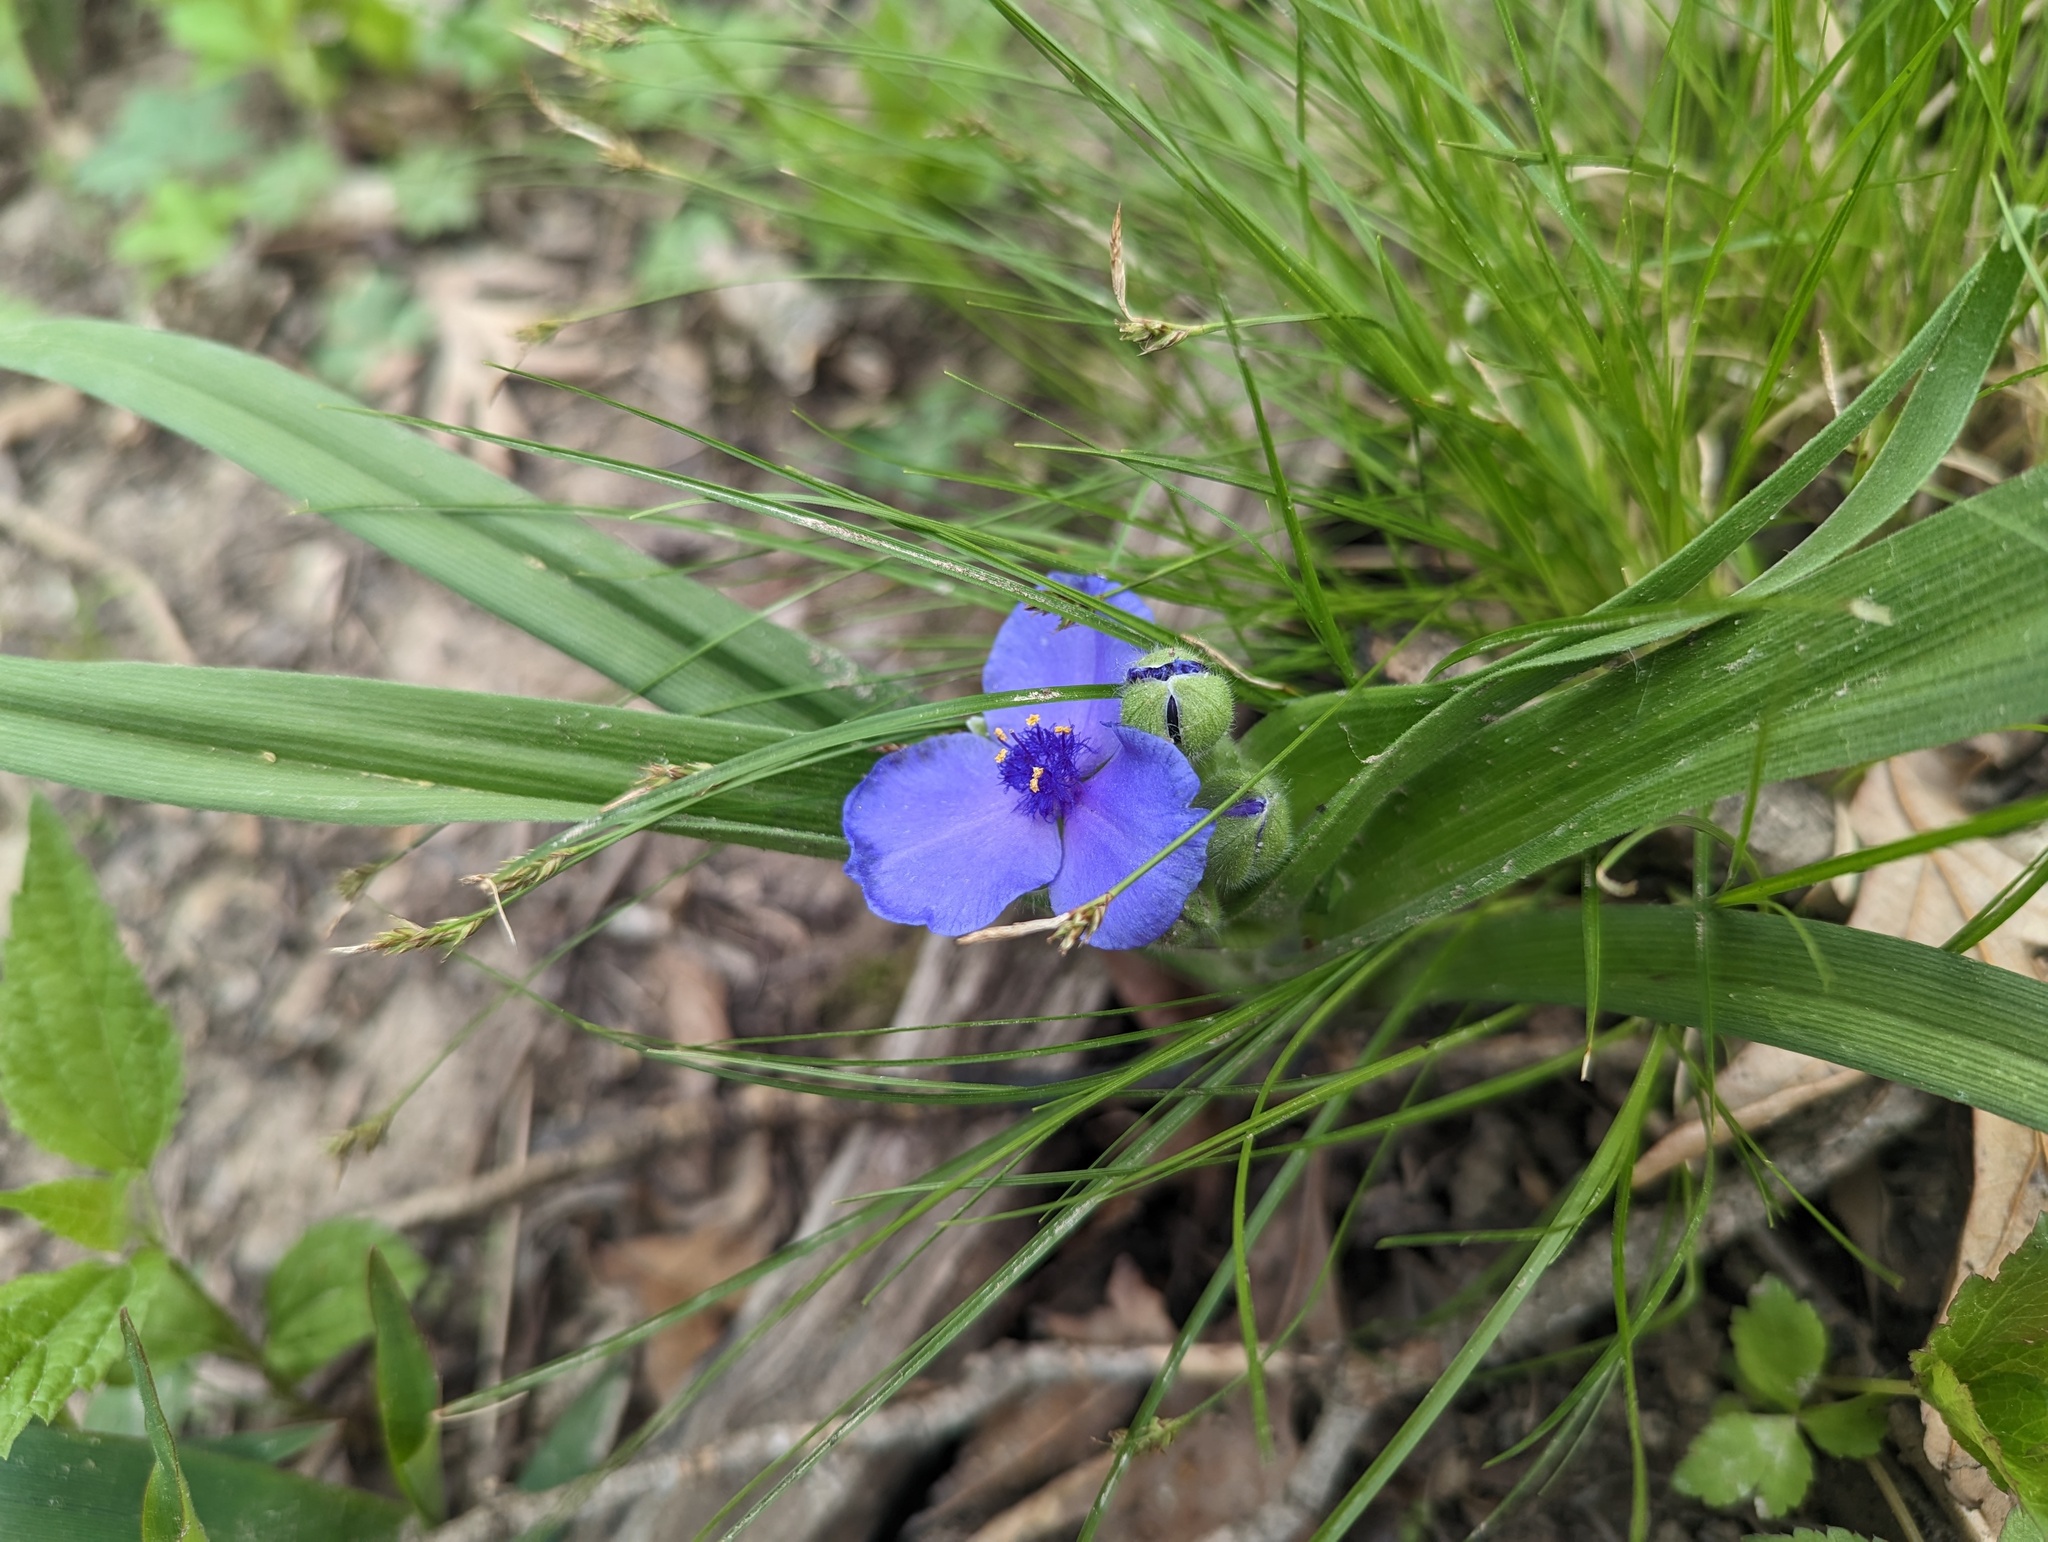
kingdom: Plantae
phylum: Tracheophyta
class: Liliopsida
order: Commelinales
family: Commelinaceae
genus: Tradescantia
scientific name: Tradescantia virginiana
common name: Spiderwort
